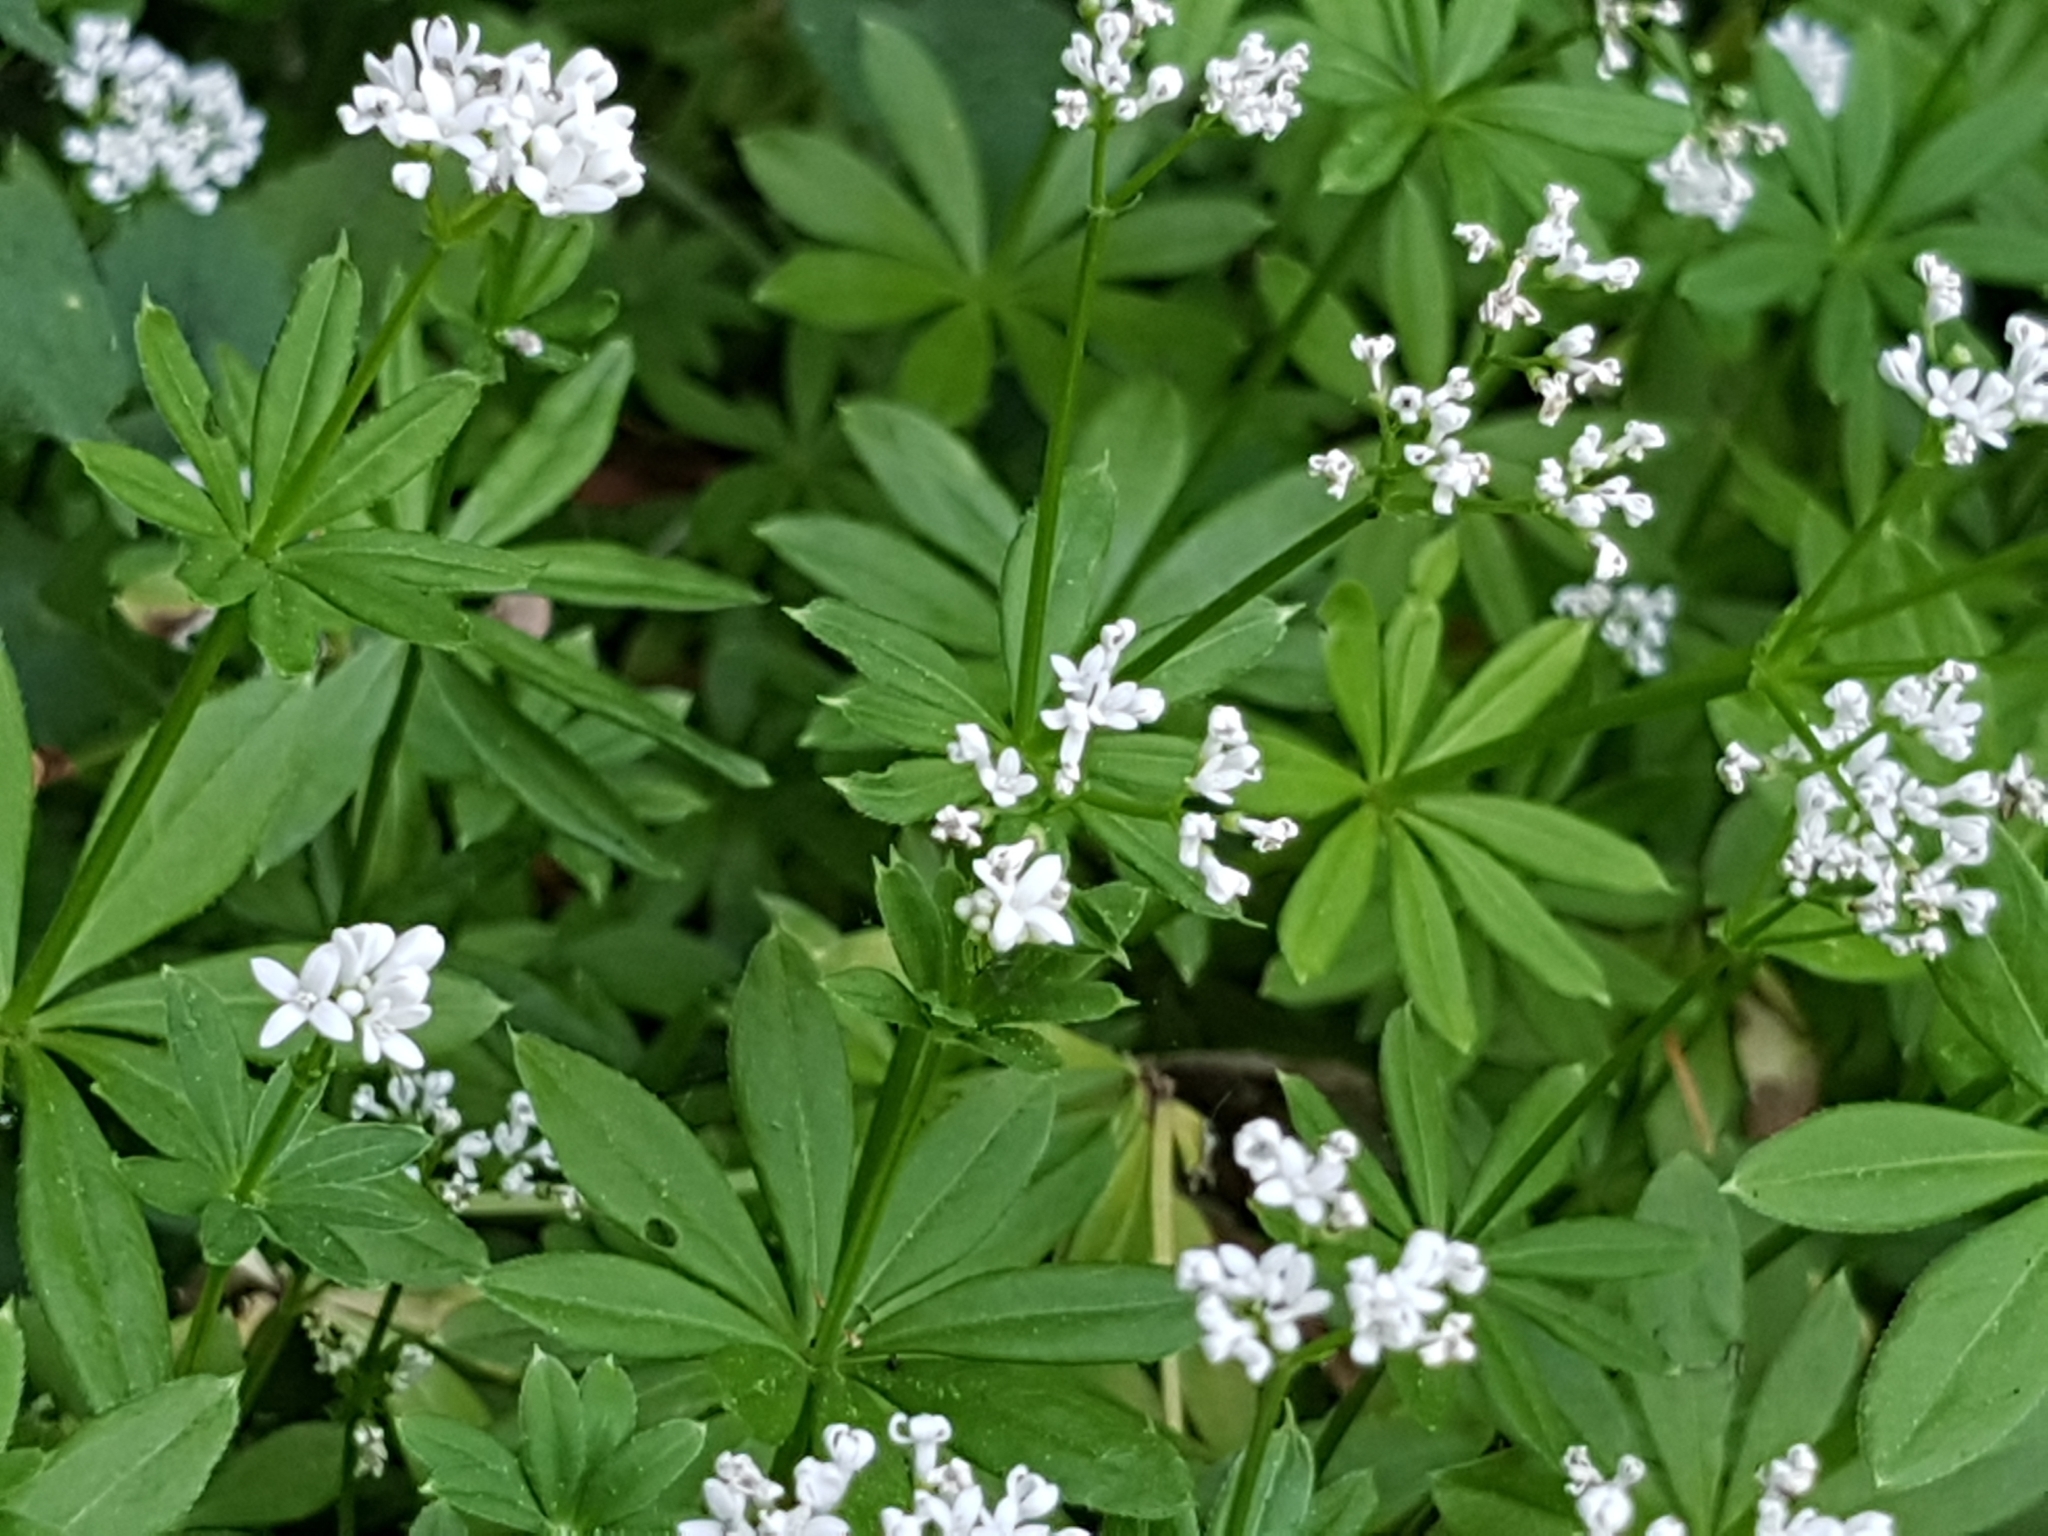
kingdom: Plantae
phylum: Tracheophyta
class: Magnoliopsida
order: Gentianales
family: Rubiaceae
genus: Galium
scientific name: Galium odoratum
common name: Sweet woodruff
